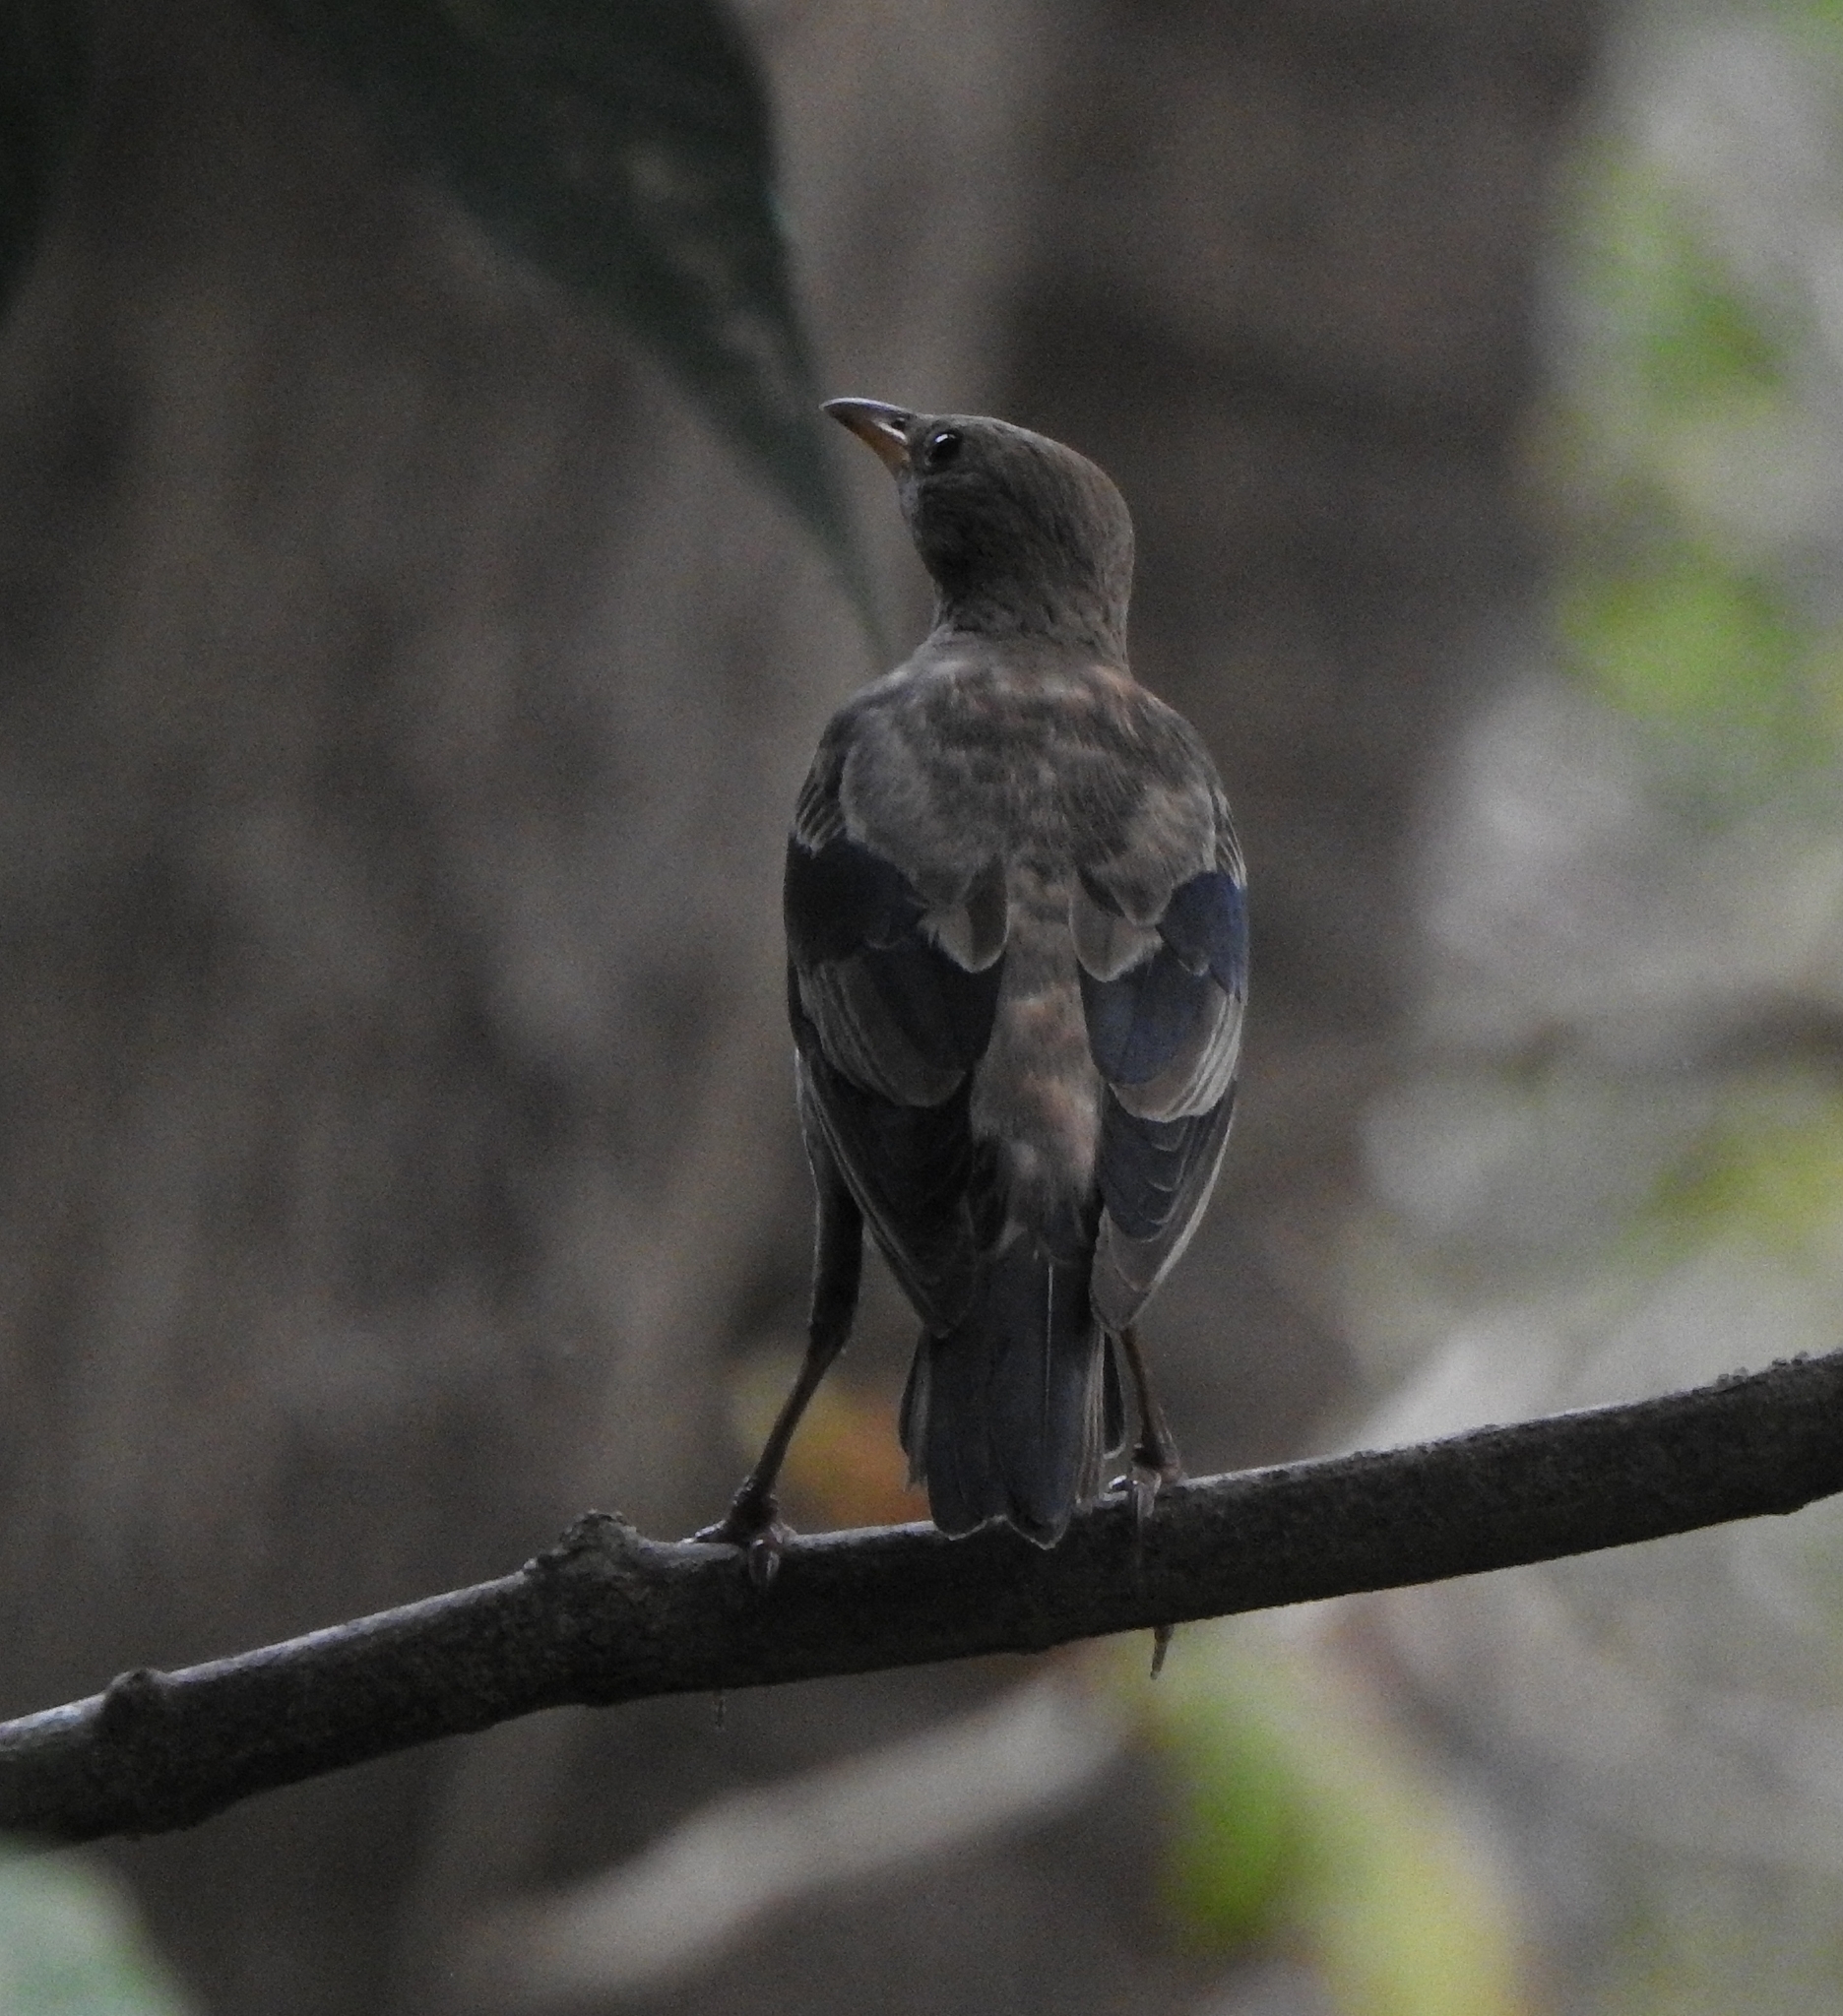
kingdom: Animalia
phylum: Chordata
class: Aves
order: Passeriformes
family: Sturnidae
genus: Pastor
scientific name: Pastor roseus
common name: Rosy starling
